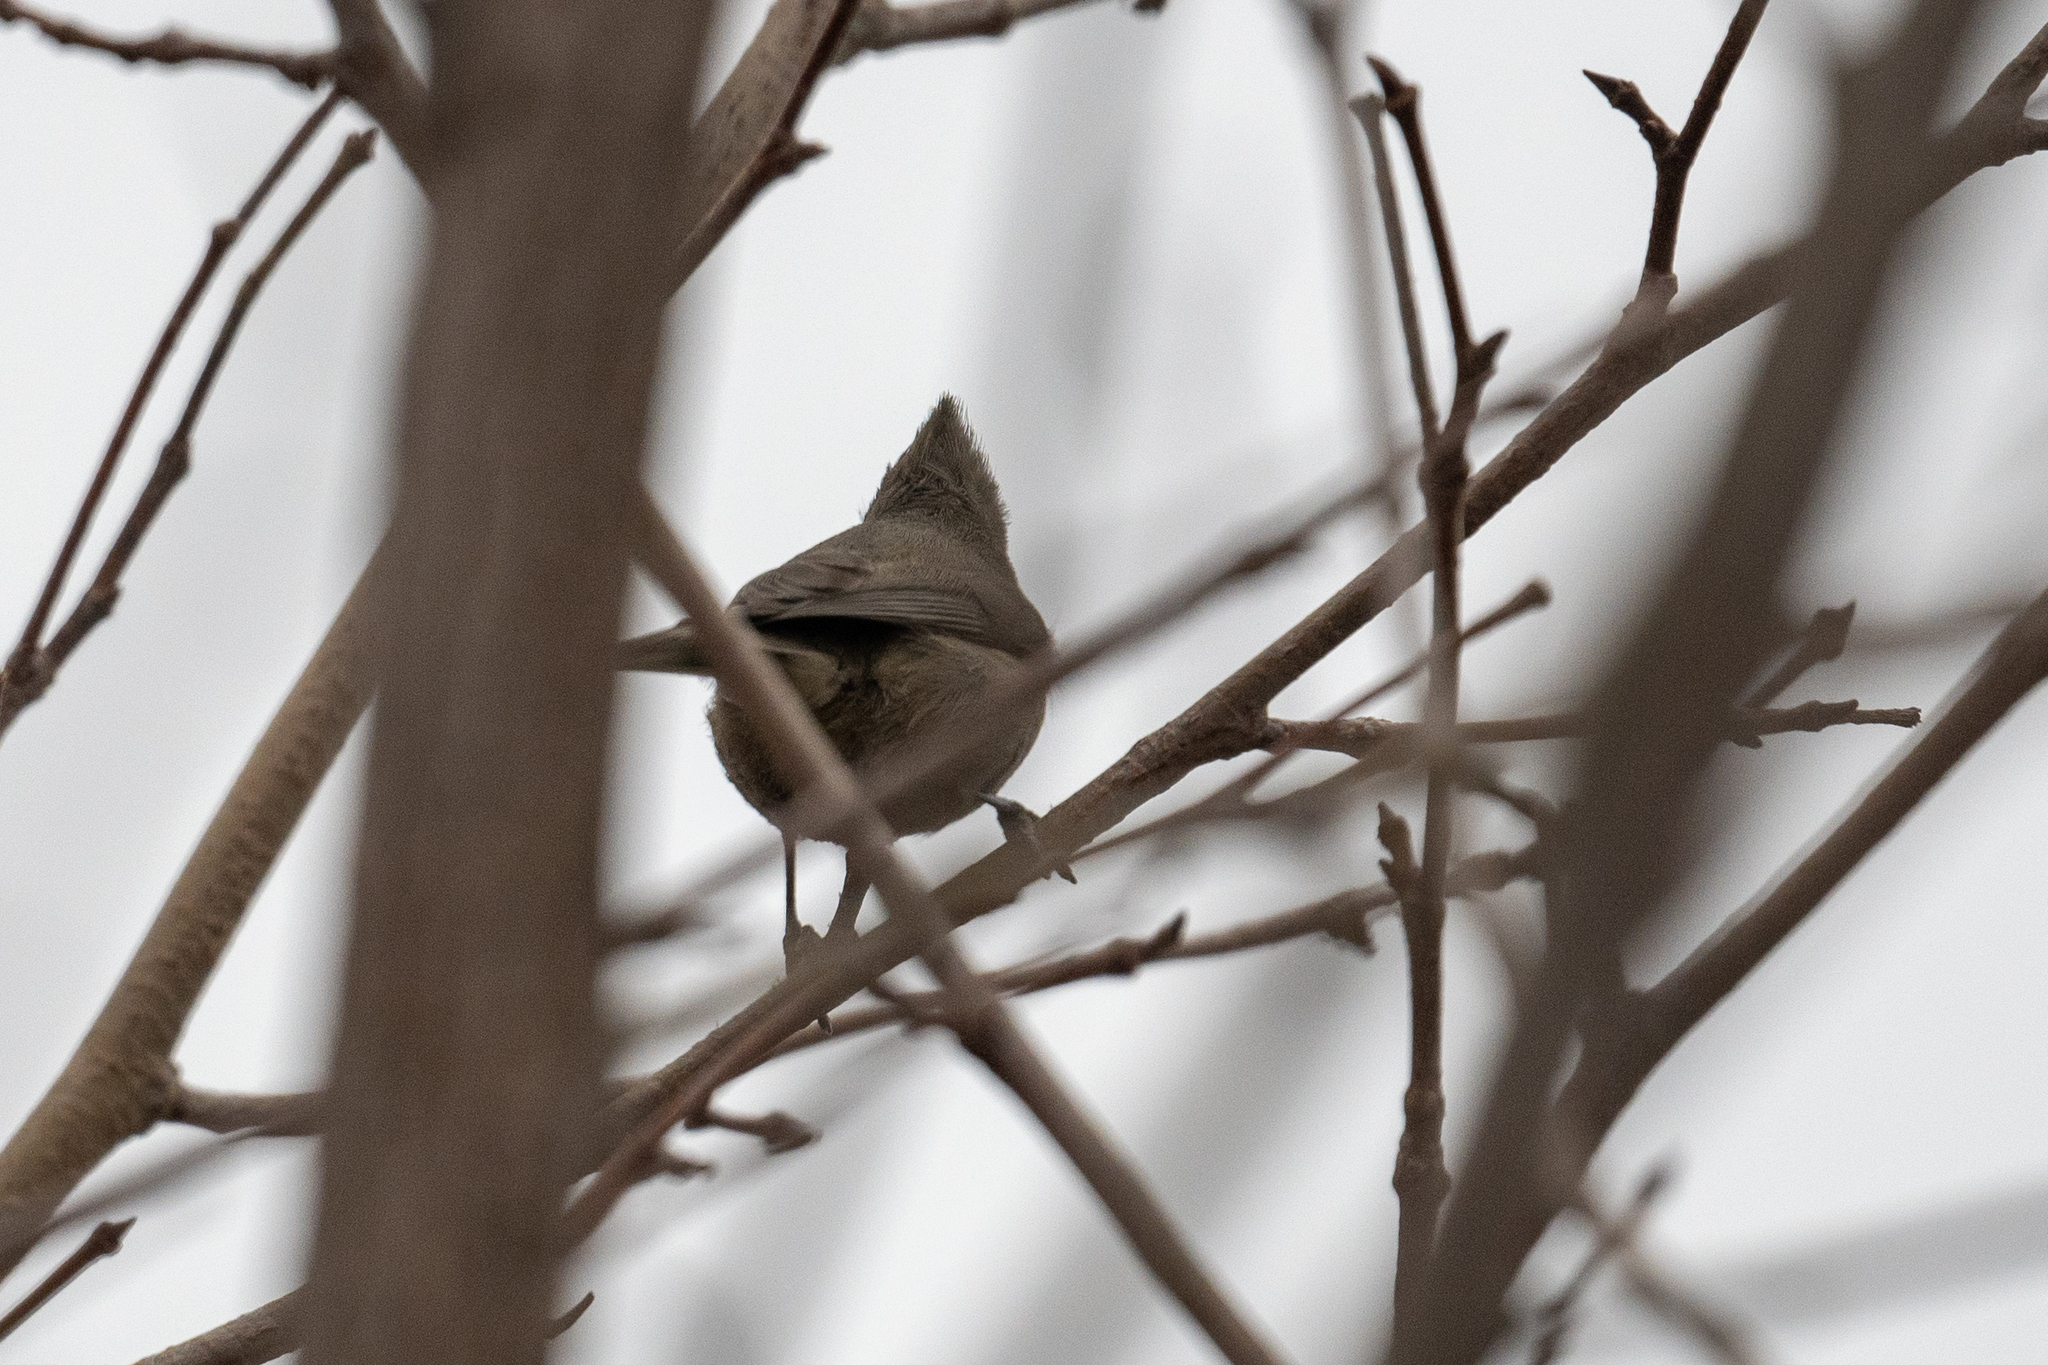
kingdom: Animalia
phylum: Chordata
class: Aves
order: Passeriformes
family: Paridae
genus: Baeolophus
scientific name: Baeolophus inornatus
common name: Oak titmouse
